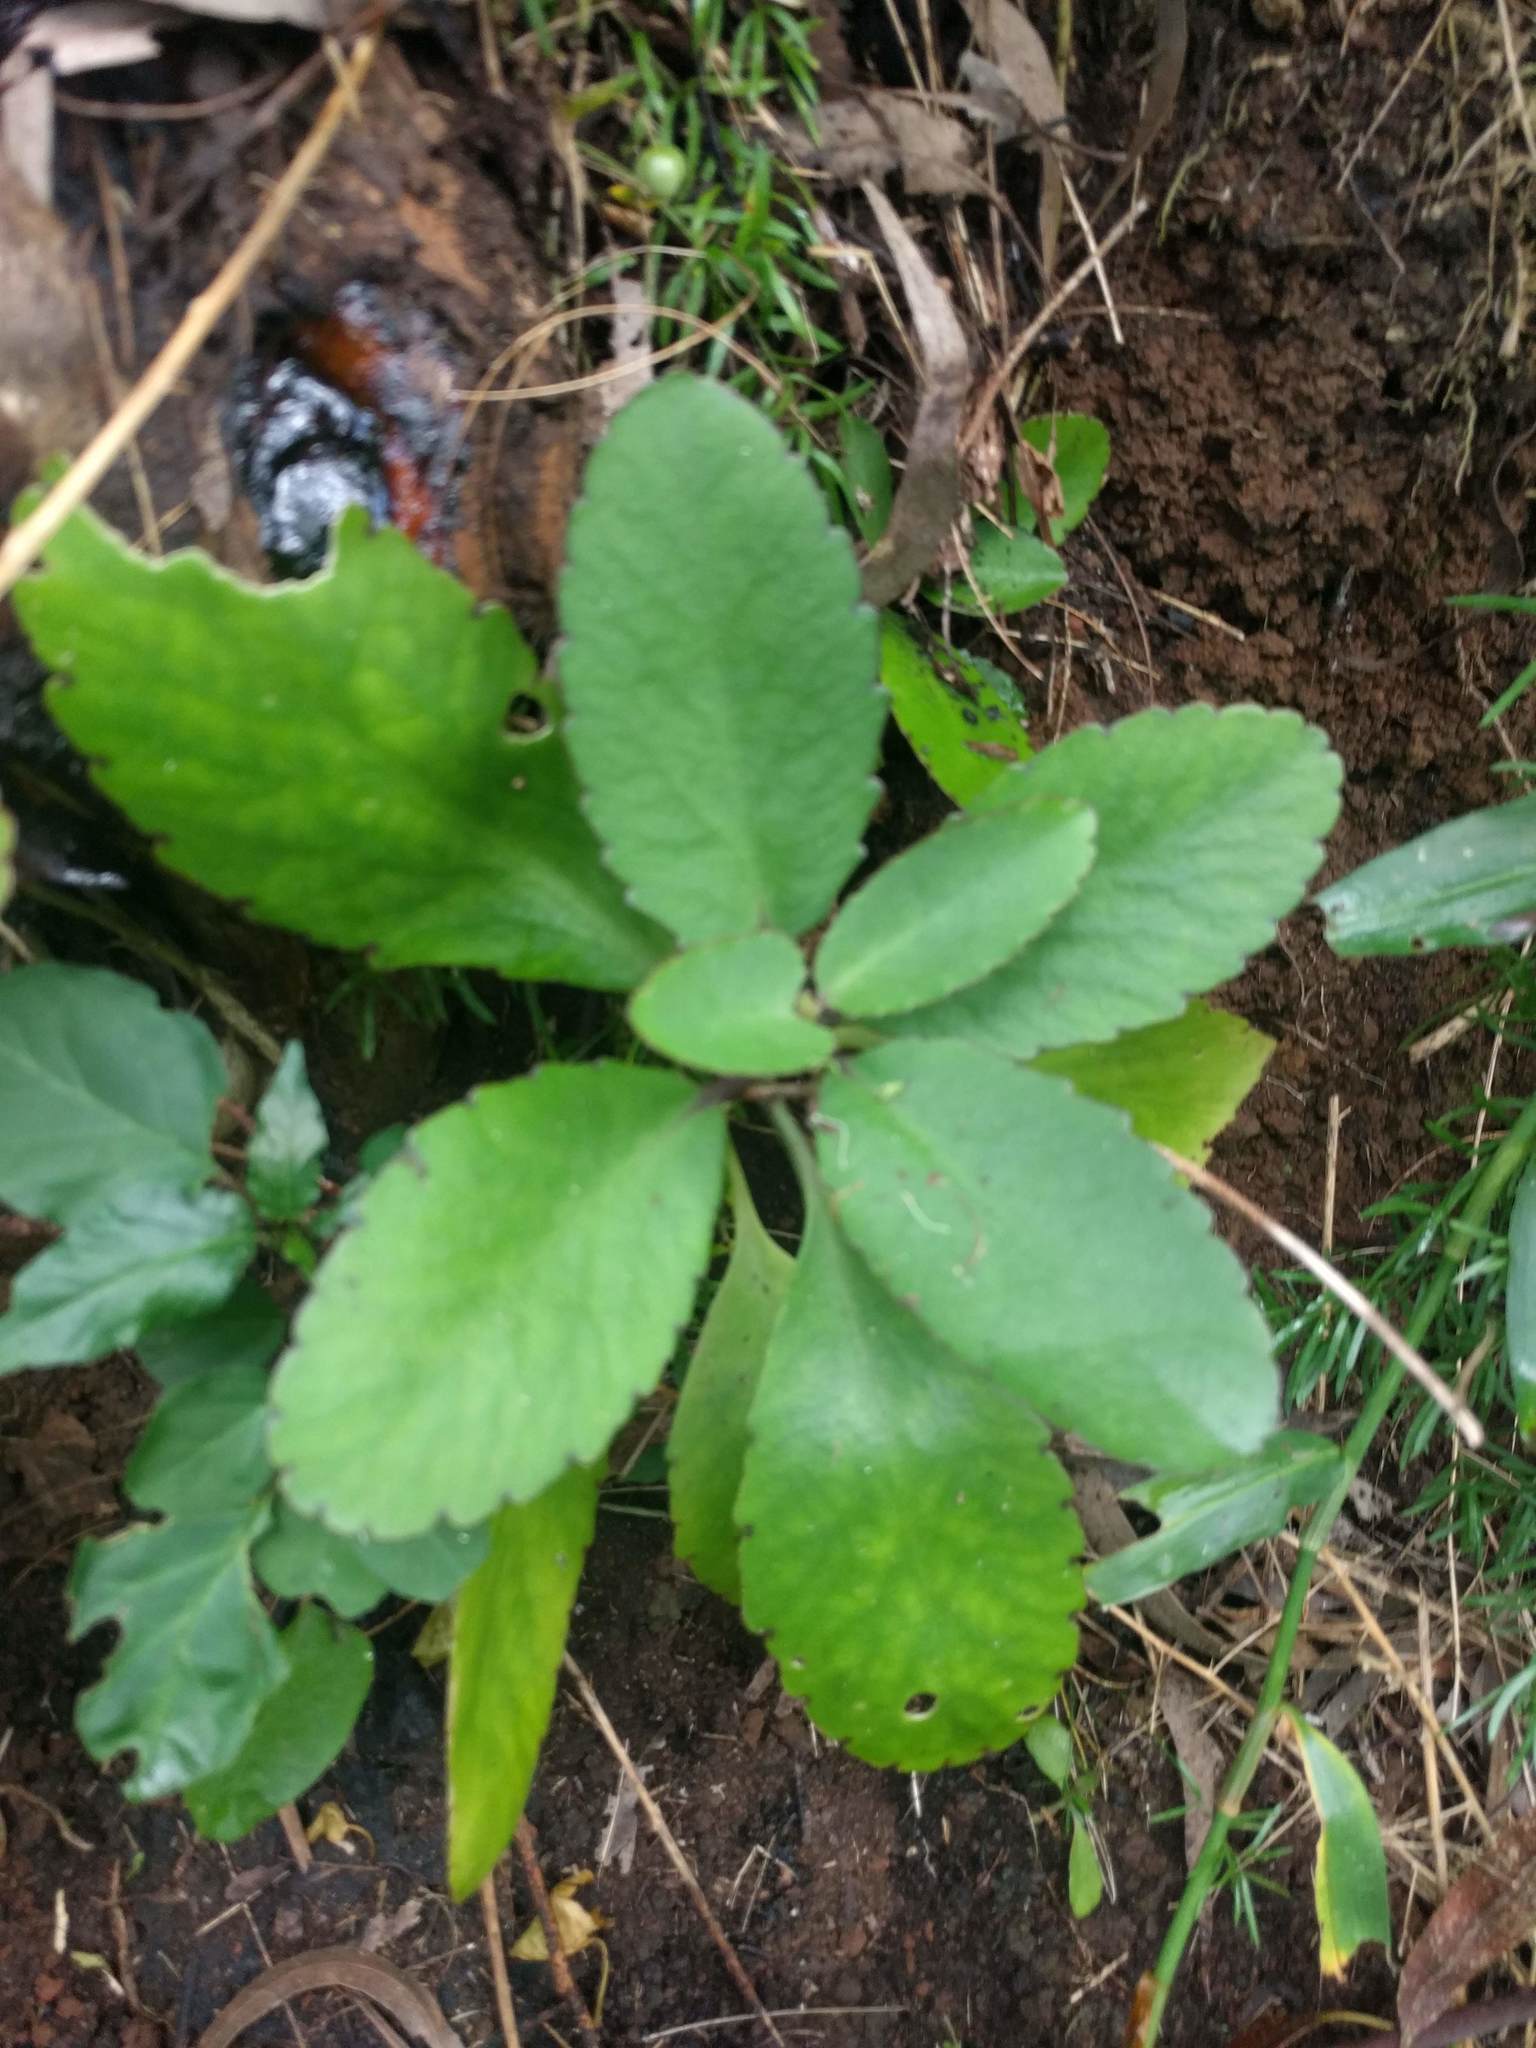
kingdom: Plantae
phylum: Tracheophyta
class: Magnoliopsida
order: Saxifragales
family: Crassulaceae
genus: Kalanchoe
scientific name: Kalanchoe pinnata
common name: Cathedral bells
